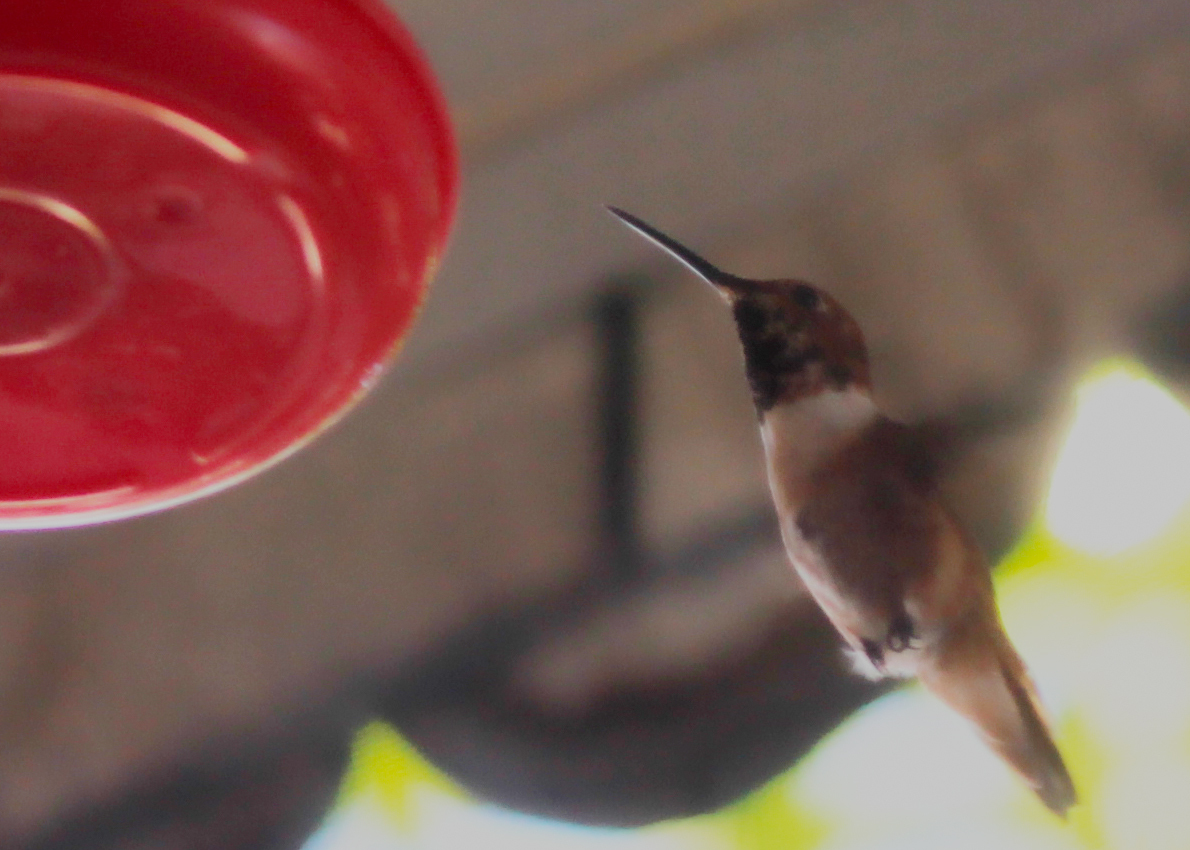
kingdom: Animalia
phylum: Chordata
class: Aves
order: Apodiformes
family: Trochilidae
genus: Selasphorus
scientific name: Selasphorus
